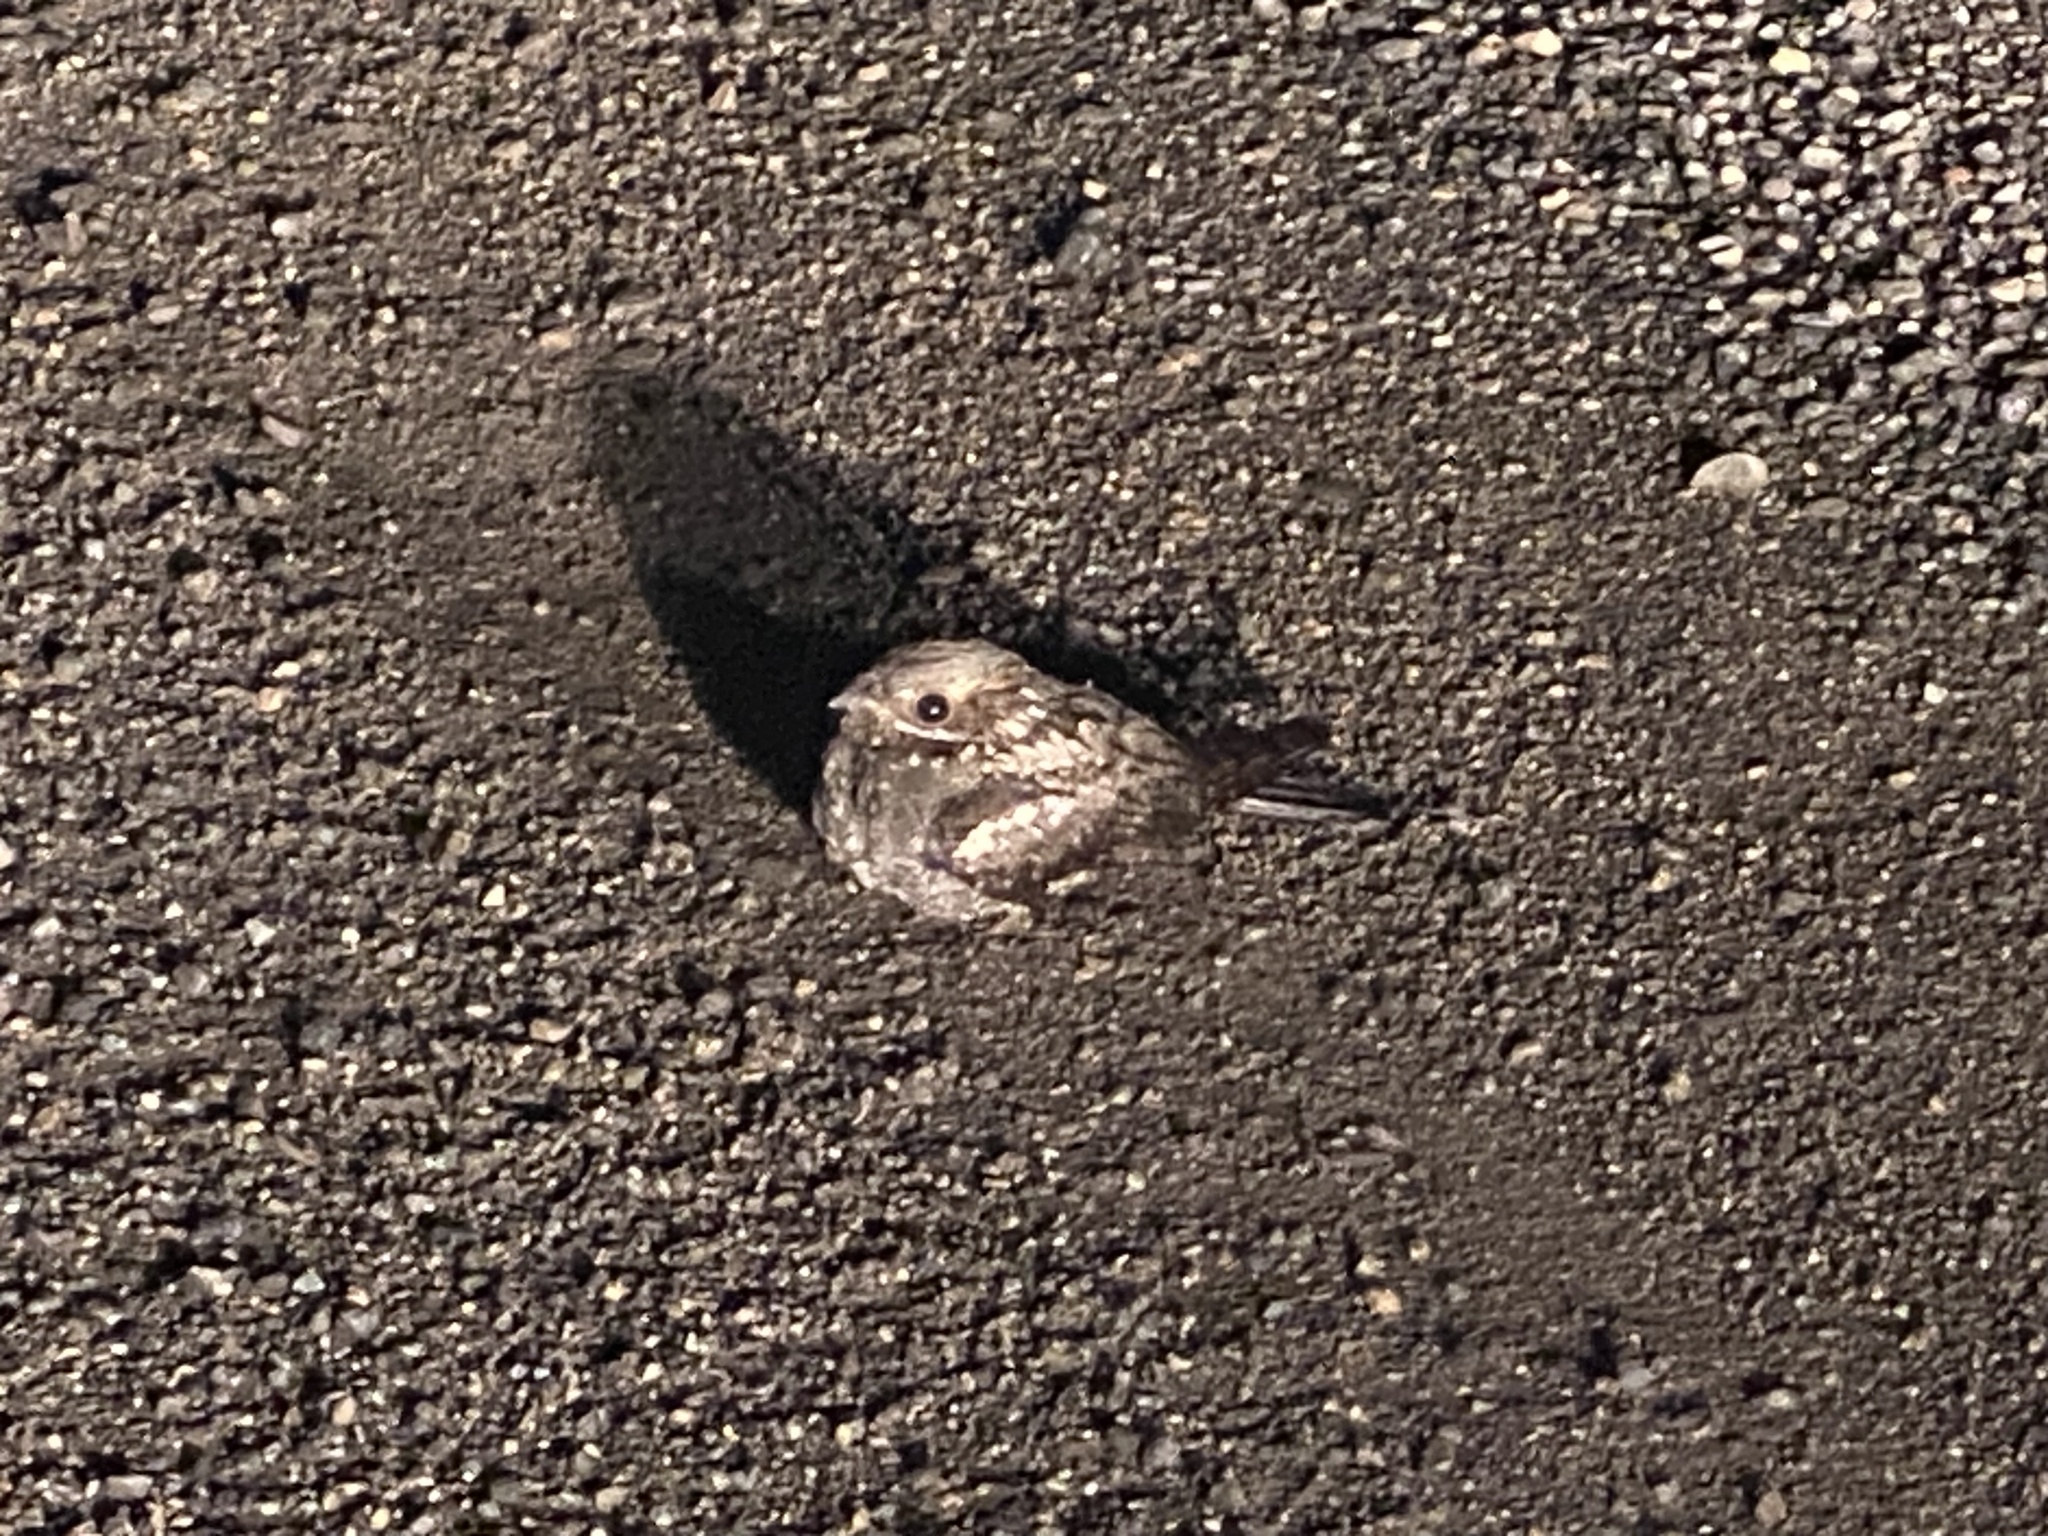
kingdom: Animalia
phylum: Chordata
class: Aves
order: Caprimulgiformes
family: Caprimulgidae
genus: Caprimulgus
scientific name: Caprimulgus ruficollis
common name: Red-necked nightjar
